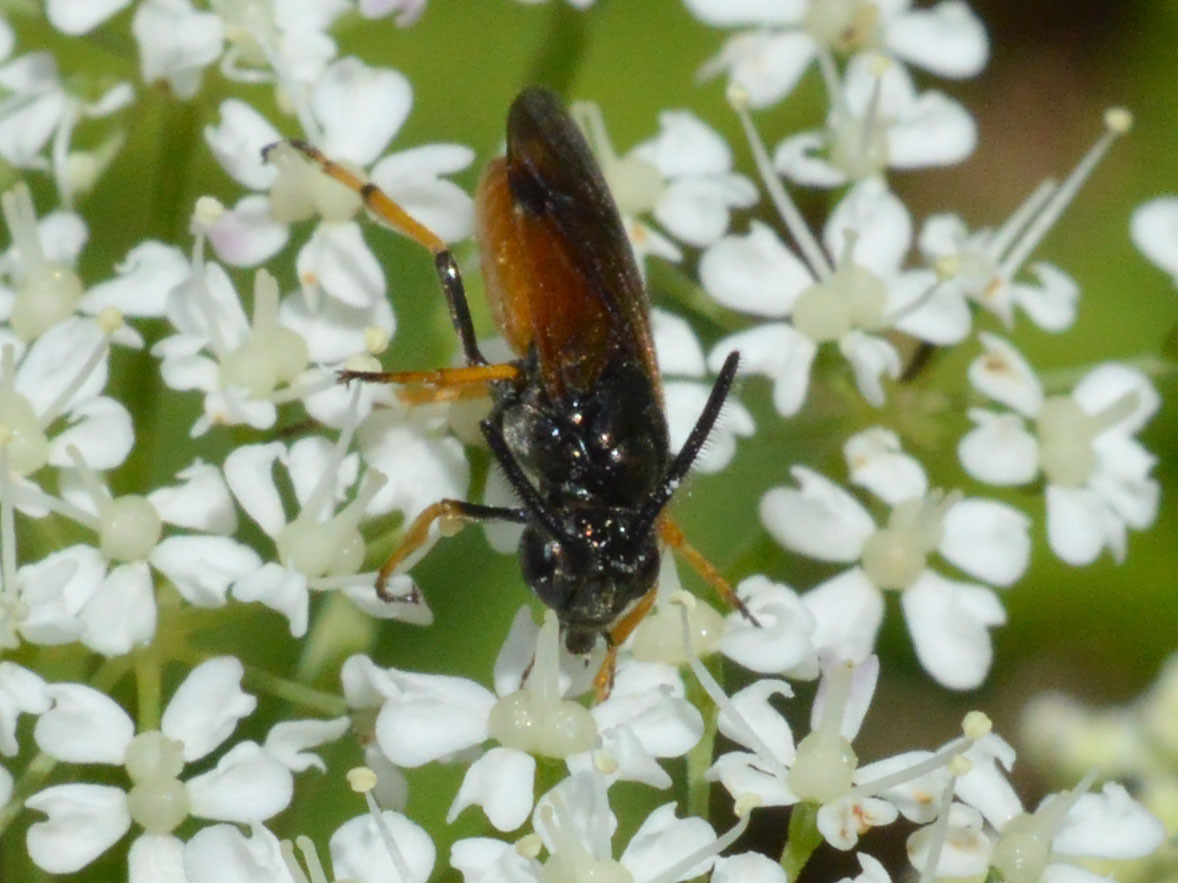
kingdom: Animalia
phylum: Arthropoda
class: Insecta
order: Hymenoptera
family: Argidae
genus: Arge
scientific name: Arge melanochra
